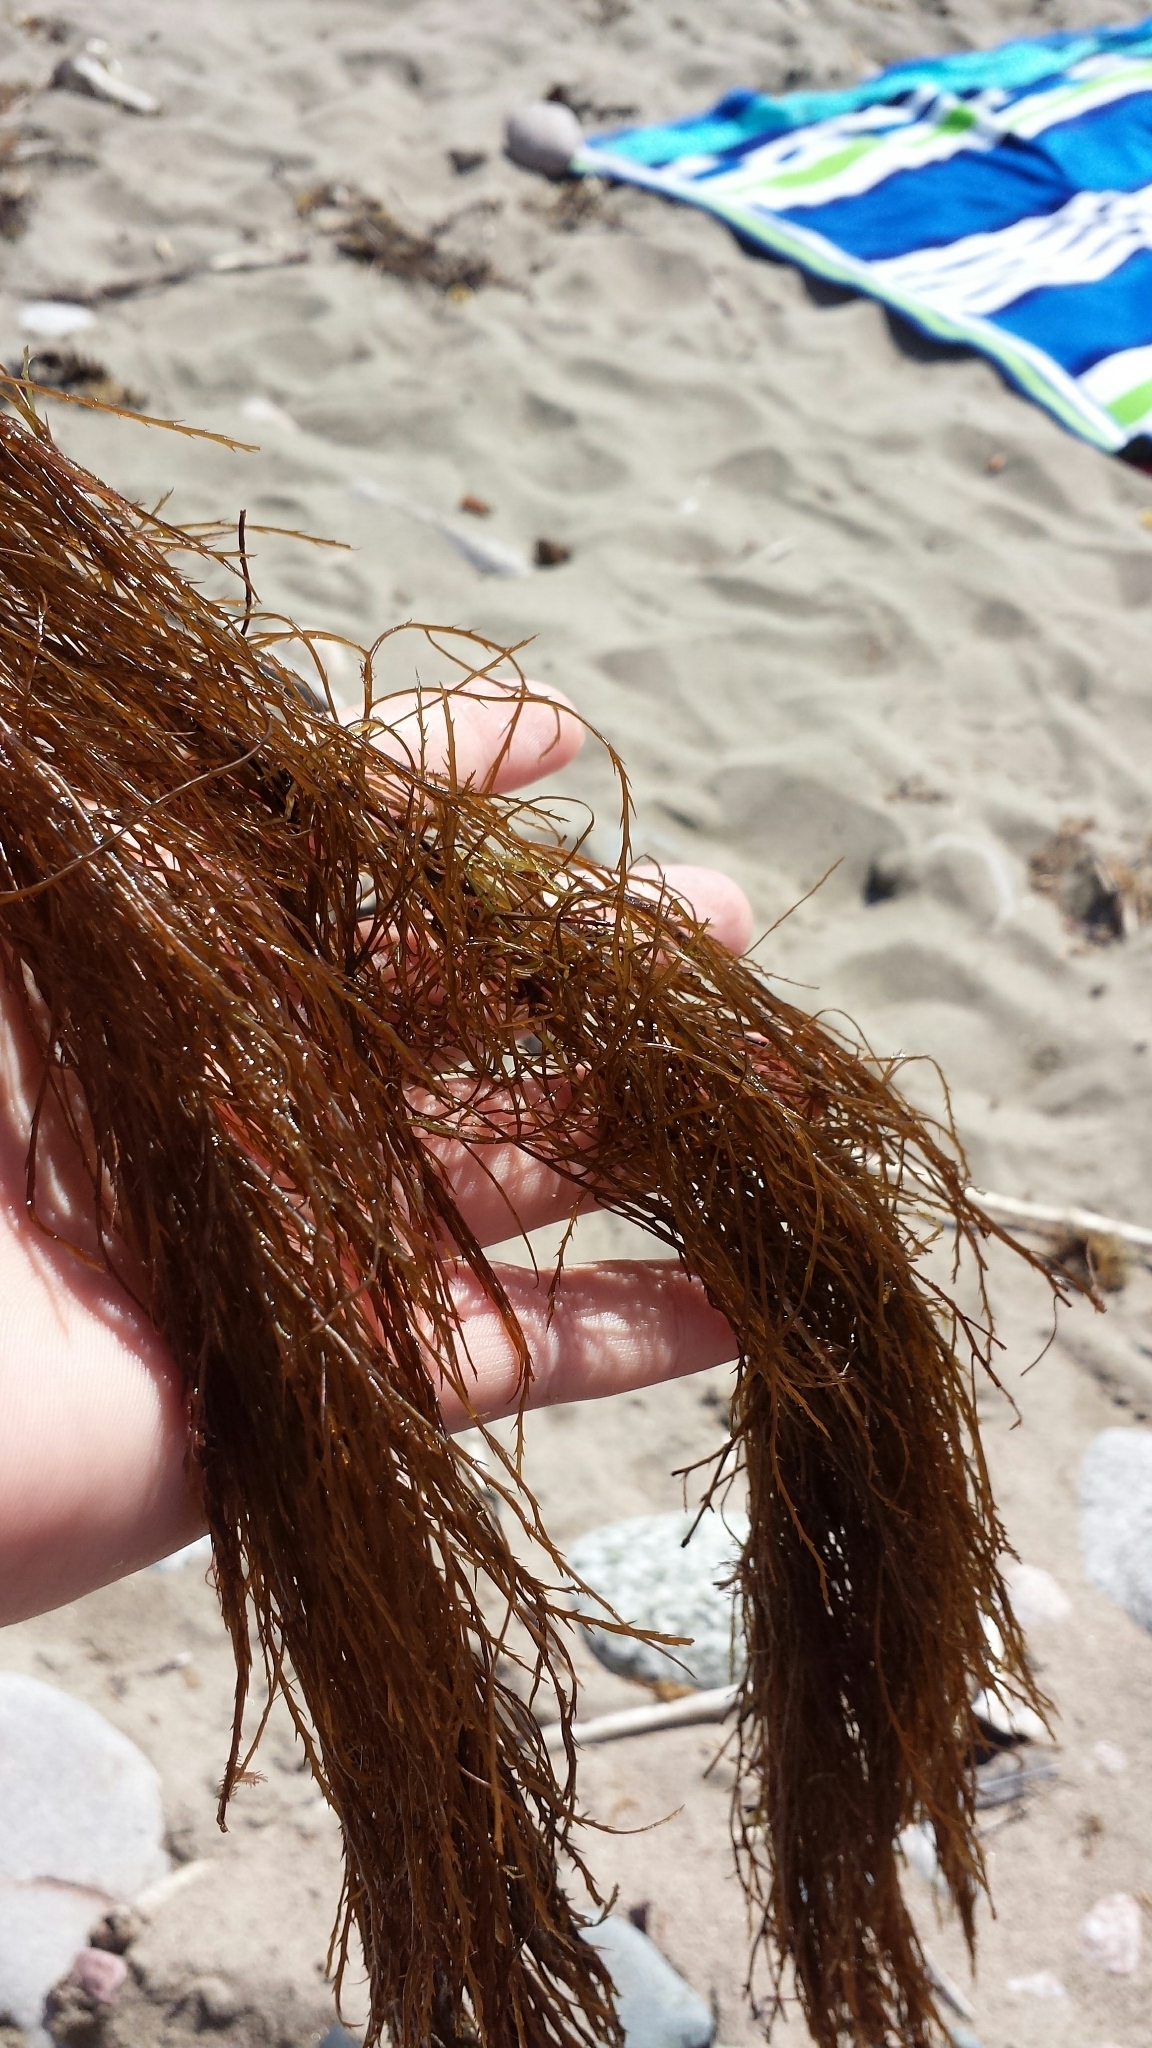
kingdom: Chromista
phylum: Ochrophyta
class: Phaeophyceae
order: Desmarestiales
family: Desmarestiaceae
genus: Desmarestia
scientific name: Desmarestia aculeata
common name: Witch's hair
